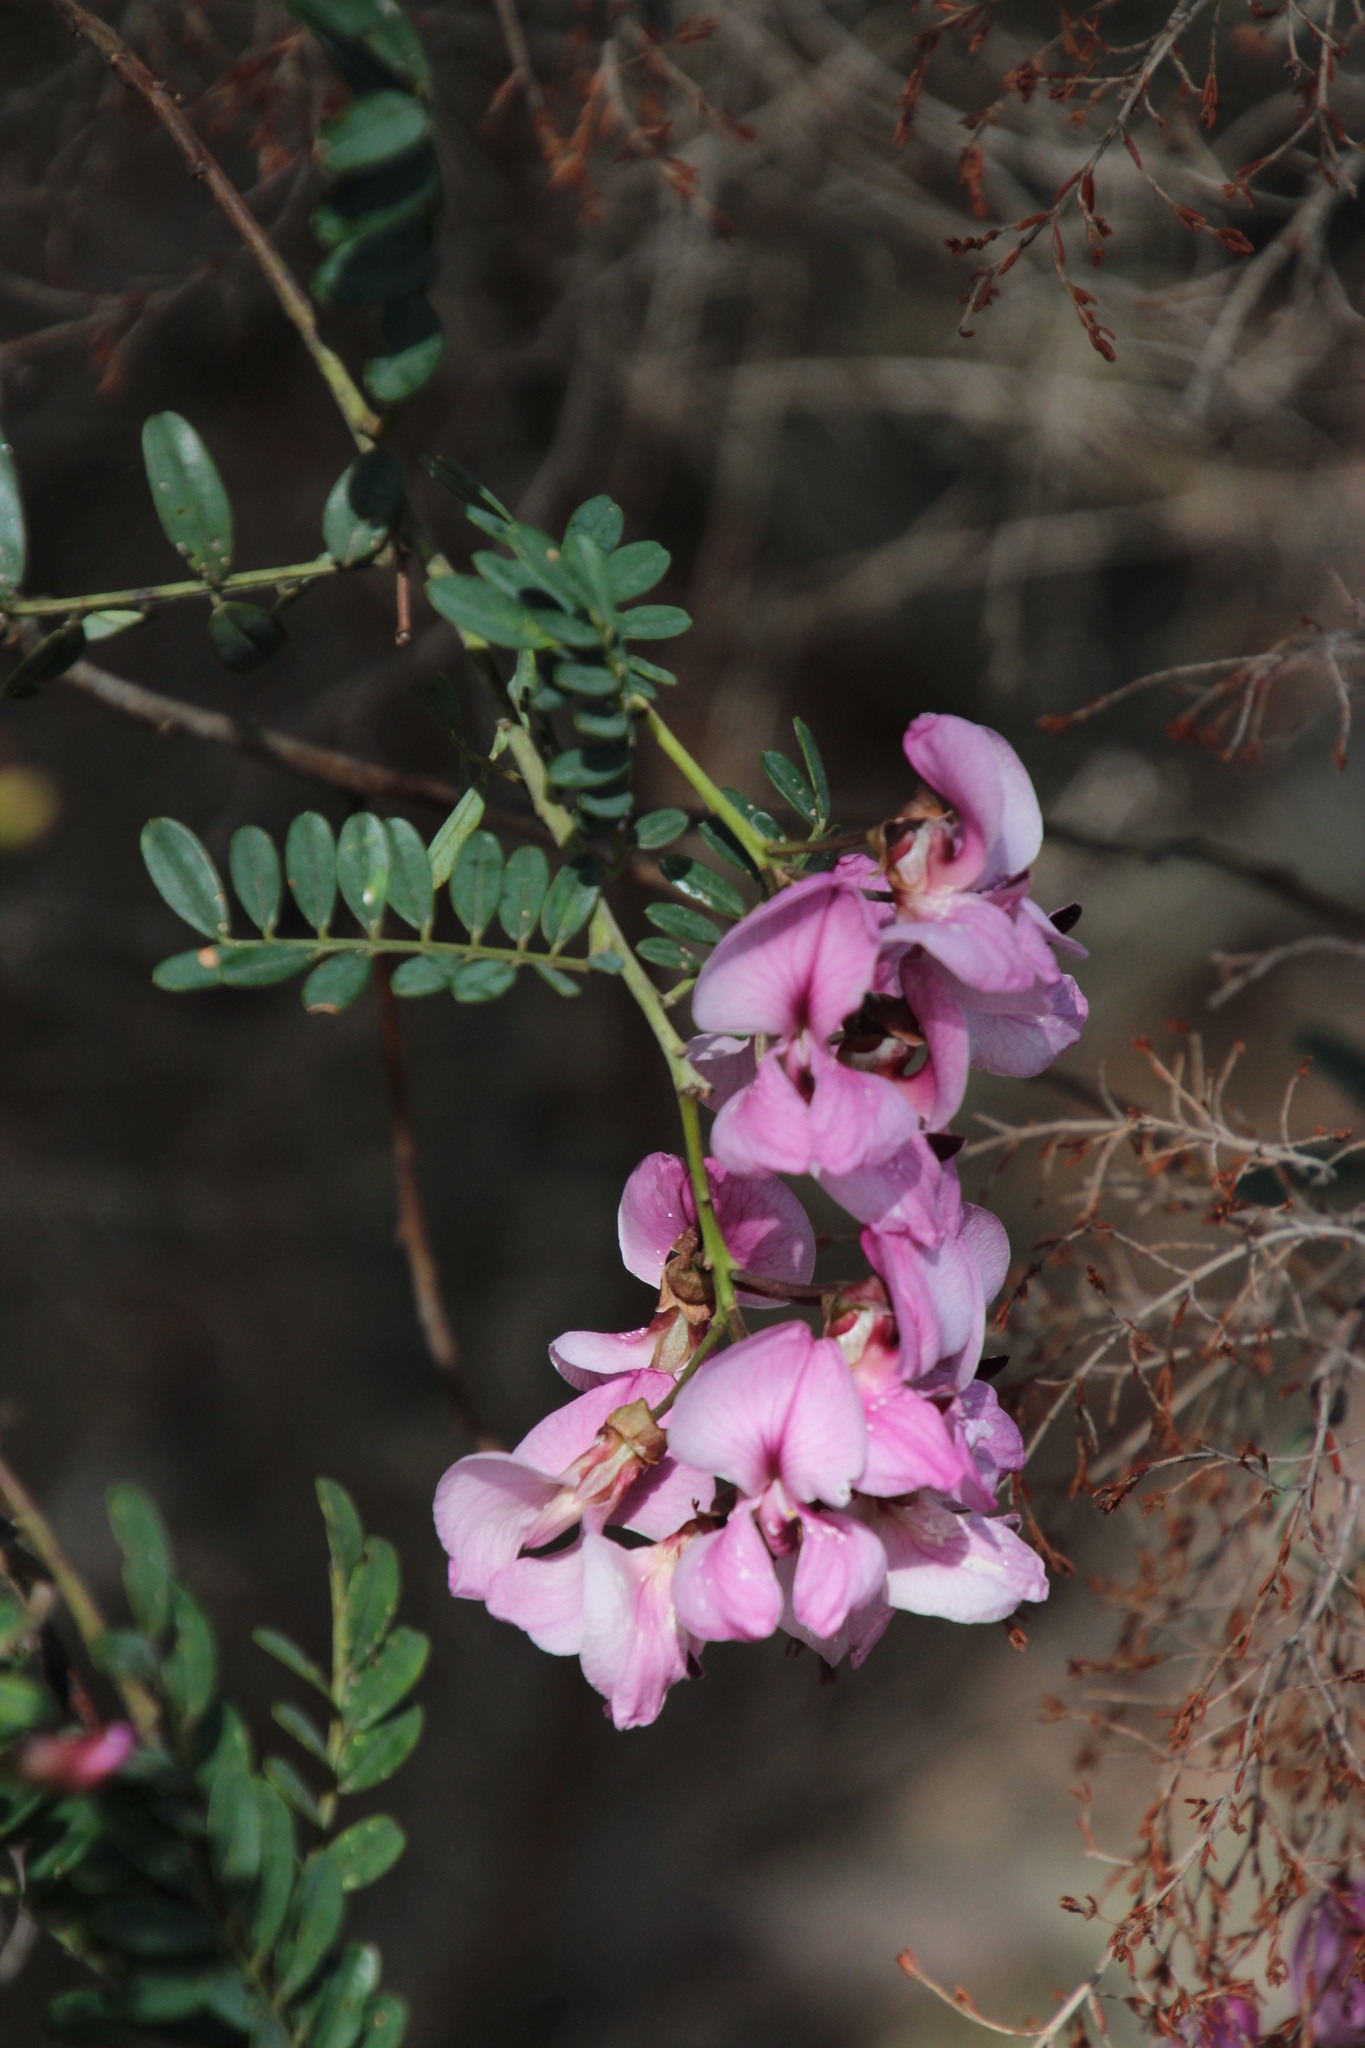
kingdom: Plantae
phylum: Tracheophyta
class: Magnoliopsida
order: Fabales
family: Fabaceae
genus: Virgilia
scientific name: Virgilia divaricata
